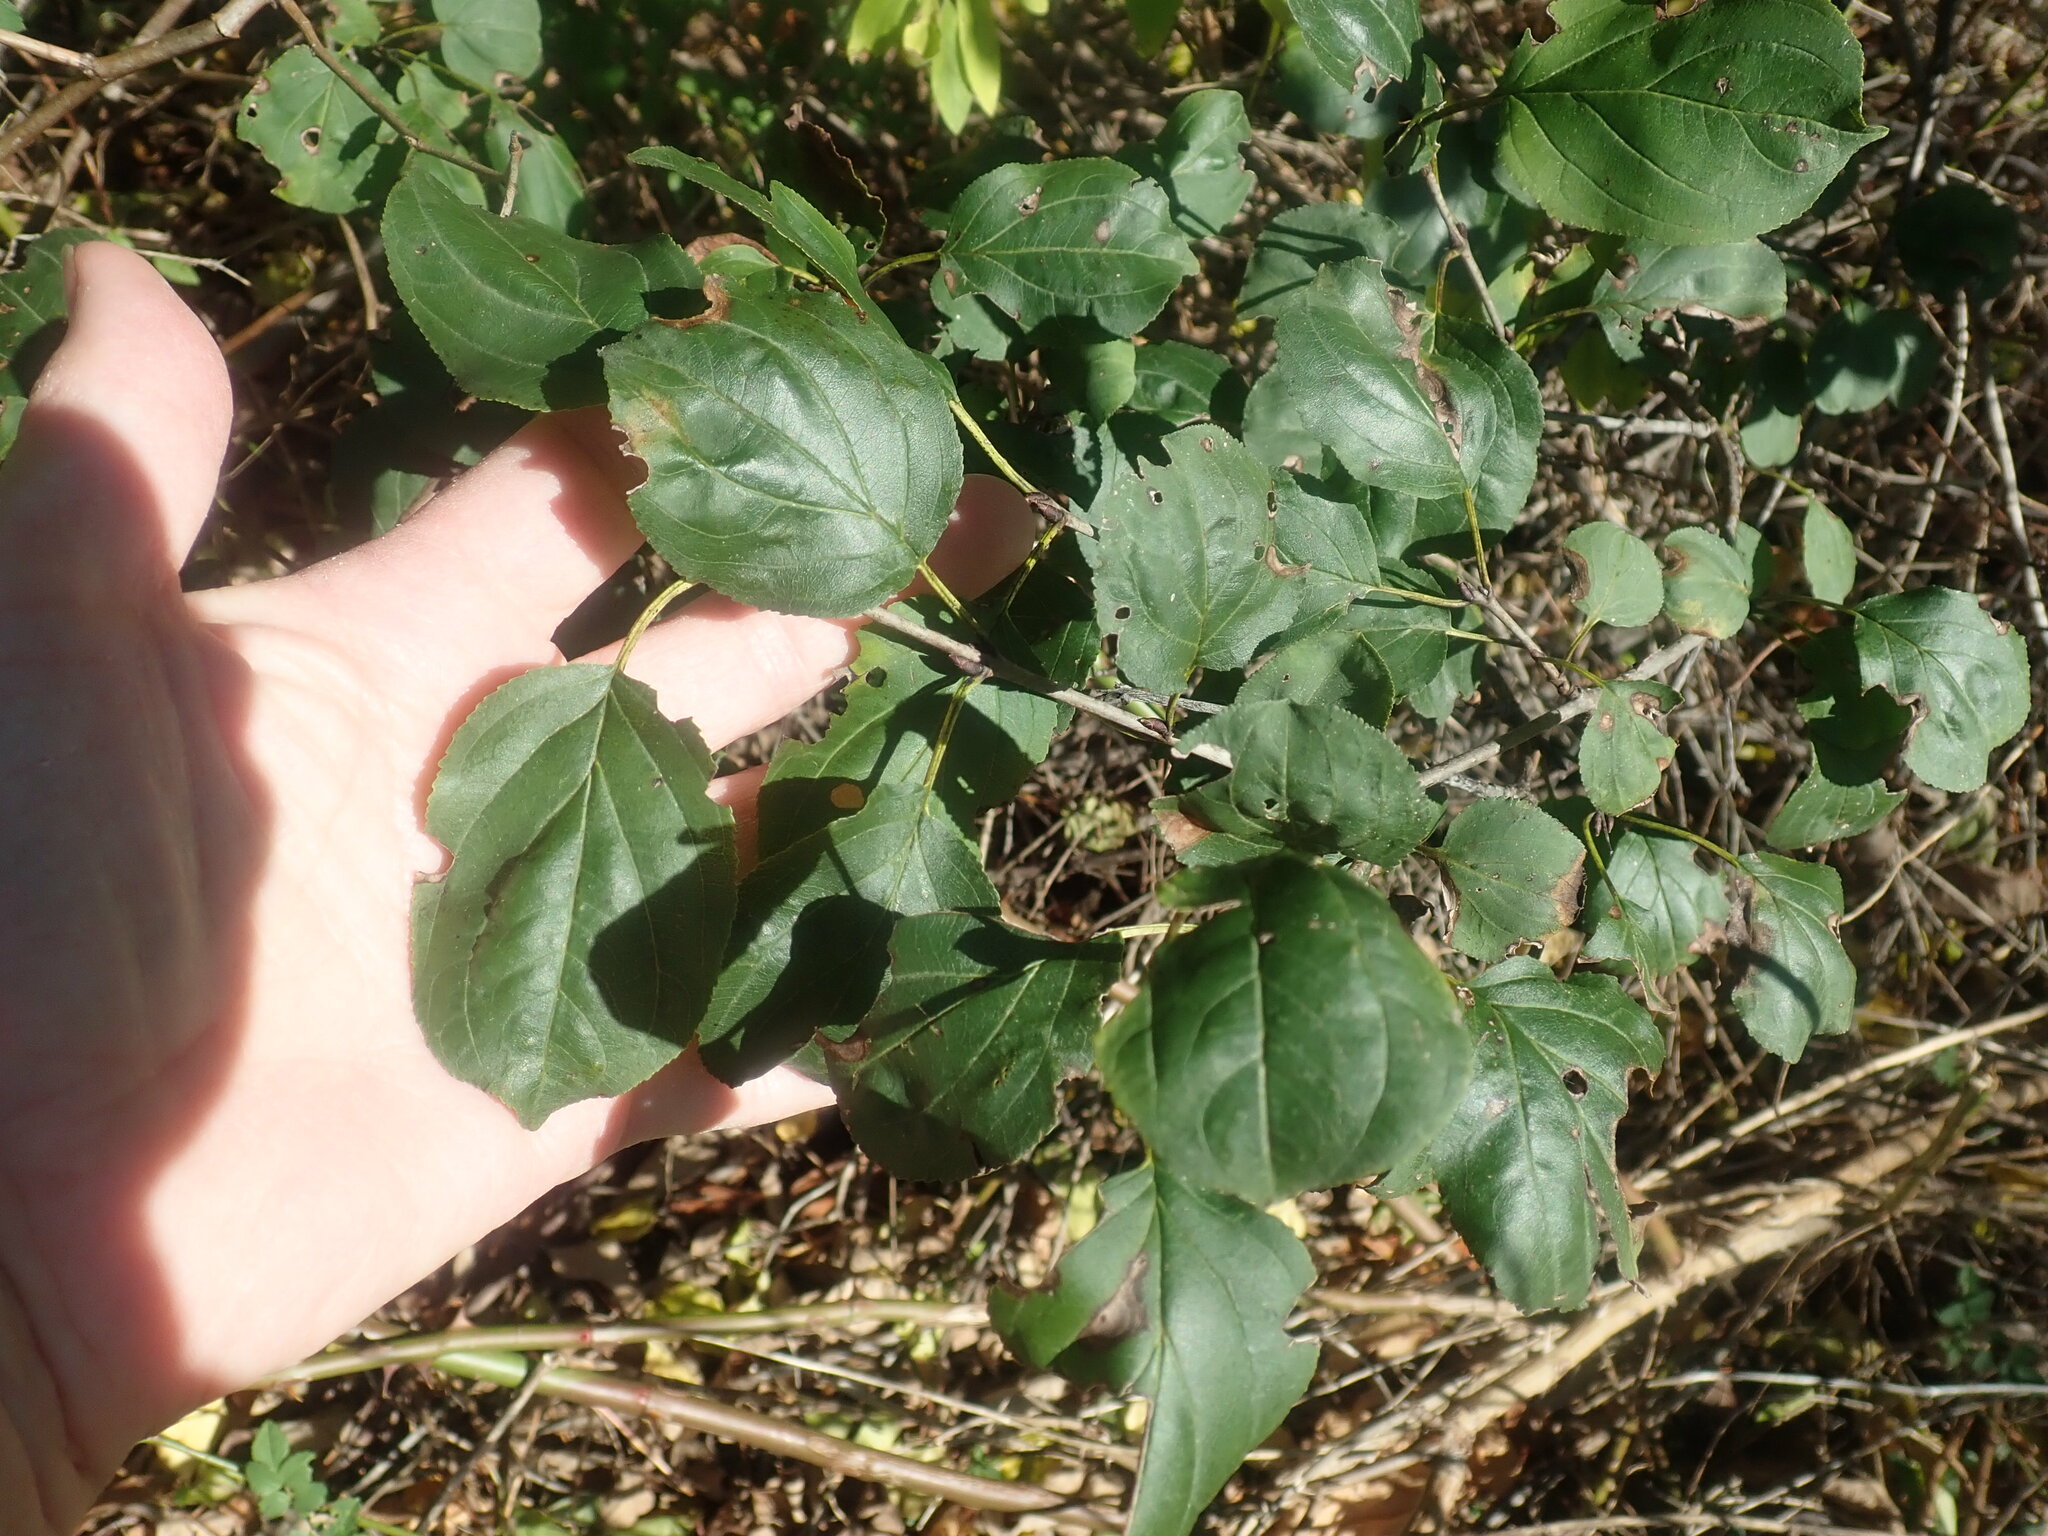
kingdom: Plantae
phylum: Tracheophyta
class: Magnoliopsida
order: Rosales
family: Rhamnaceae
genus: Rhamnus
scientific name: Rhamnus cathartica
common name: Common buckthorn
